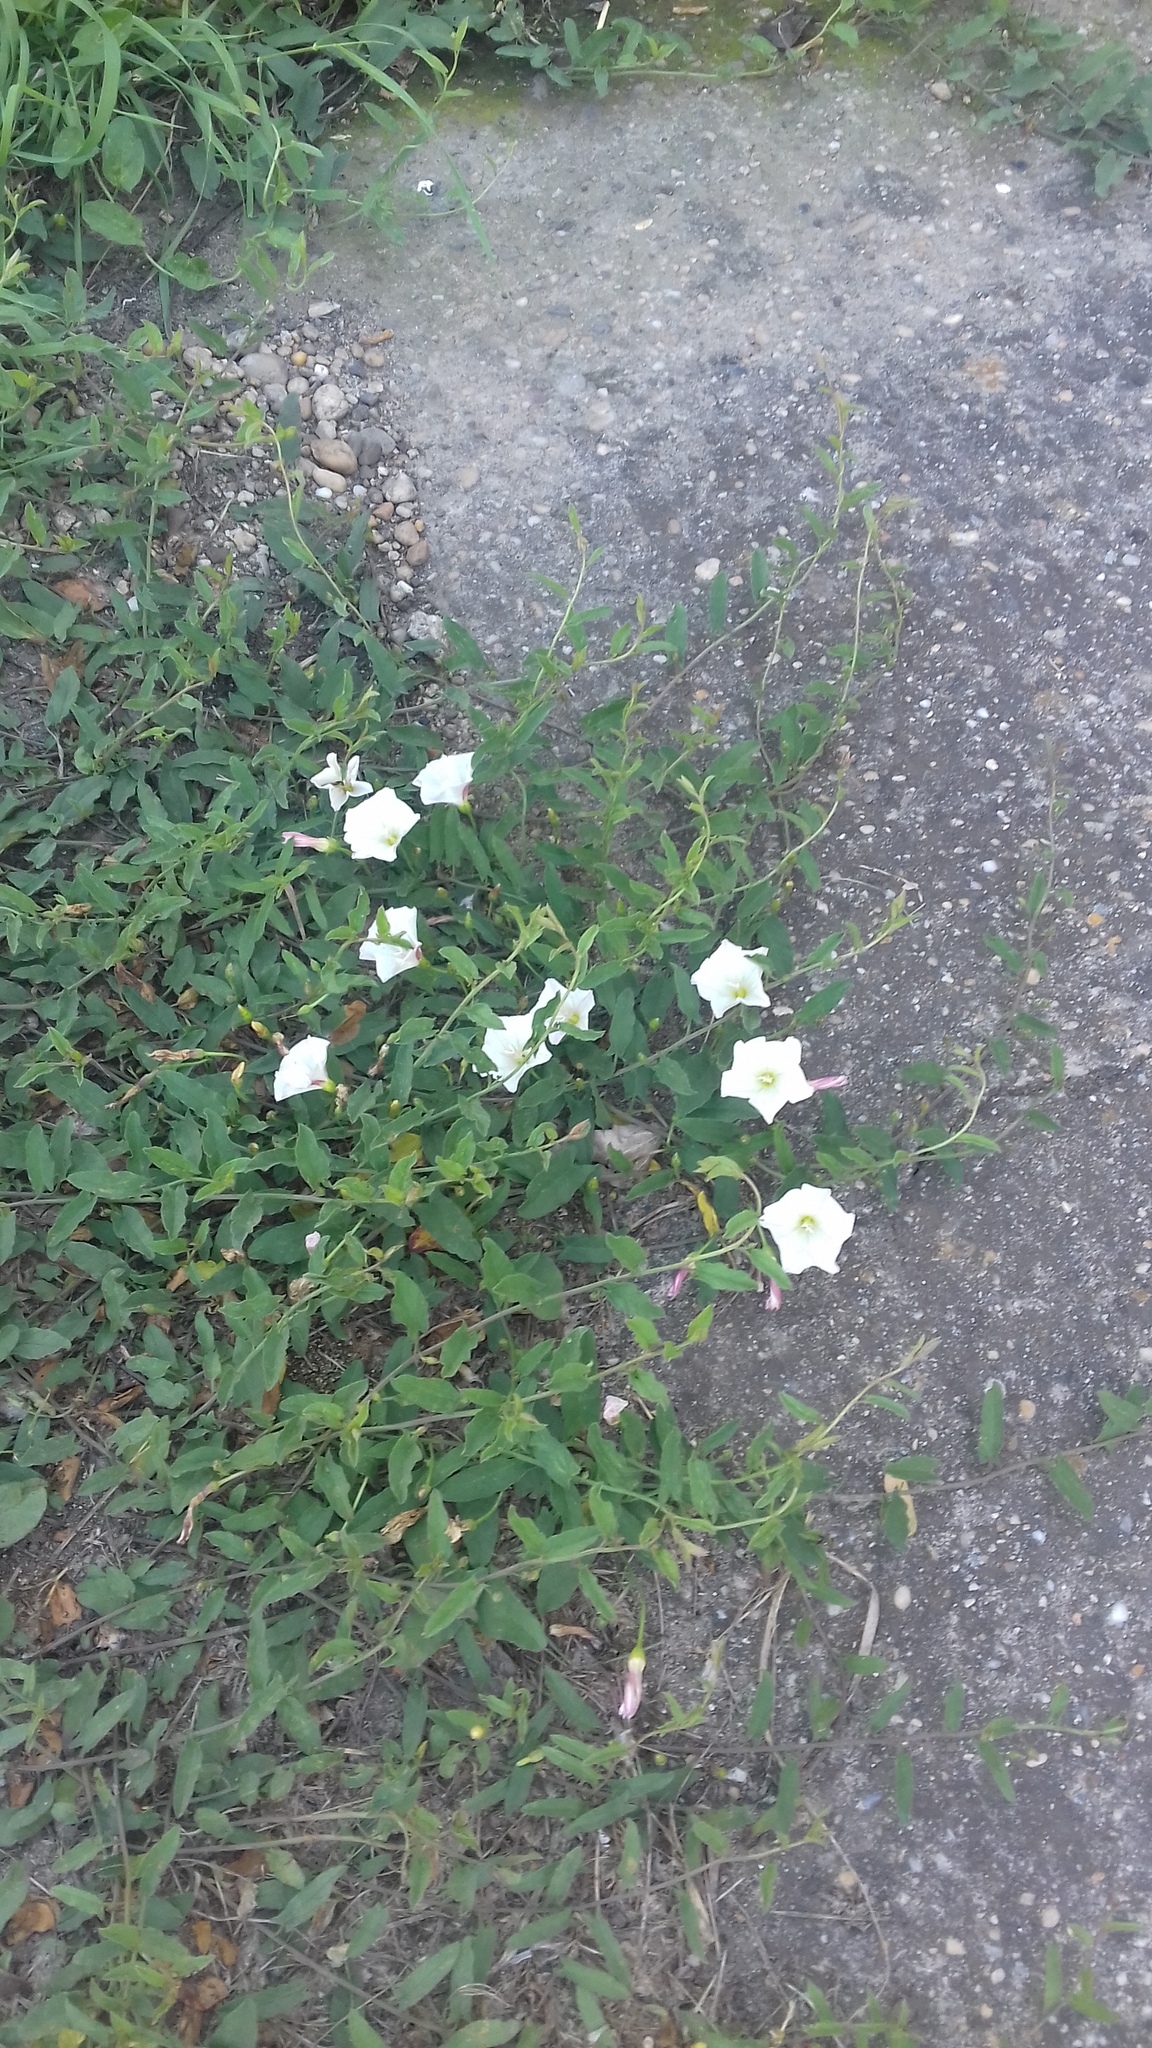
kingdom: Plantae
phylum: Tracheophyta
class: Magnoliopsida
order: Solanales
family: Convolvulaceae
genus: Convolvulus
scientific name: Convolvulus arvensis
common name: Field bindweed
